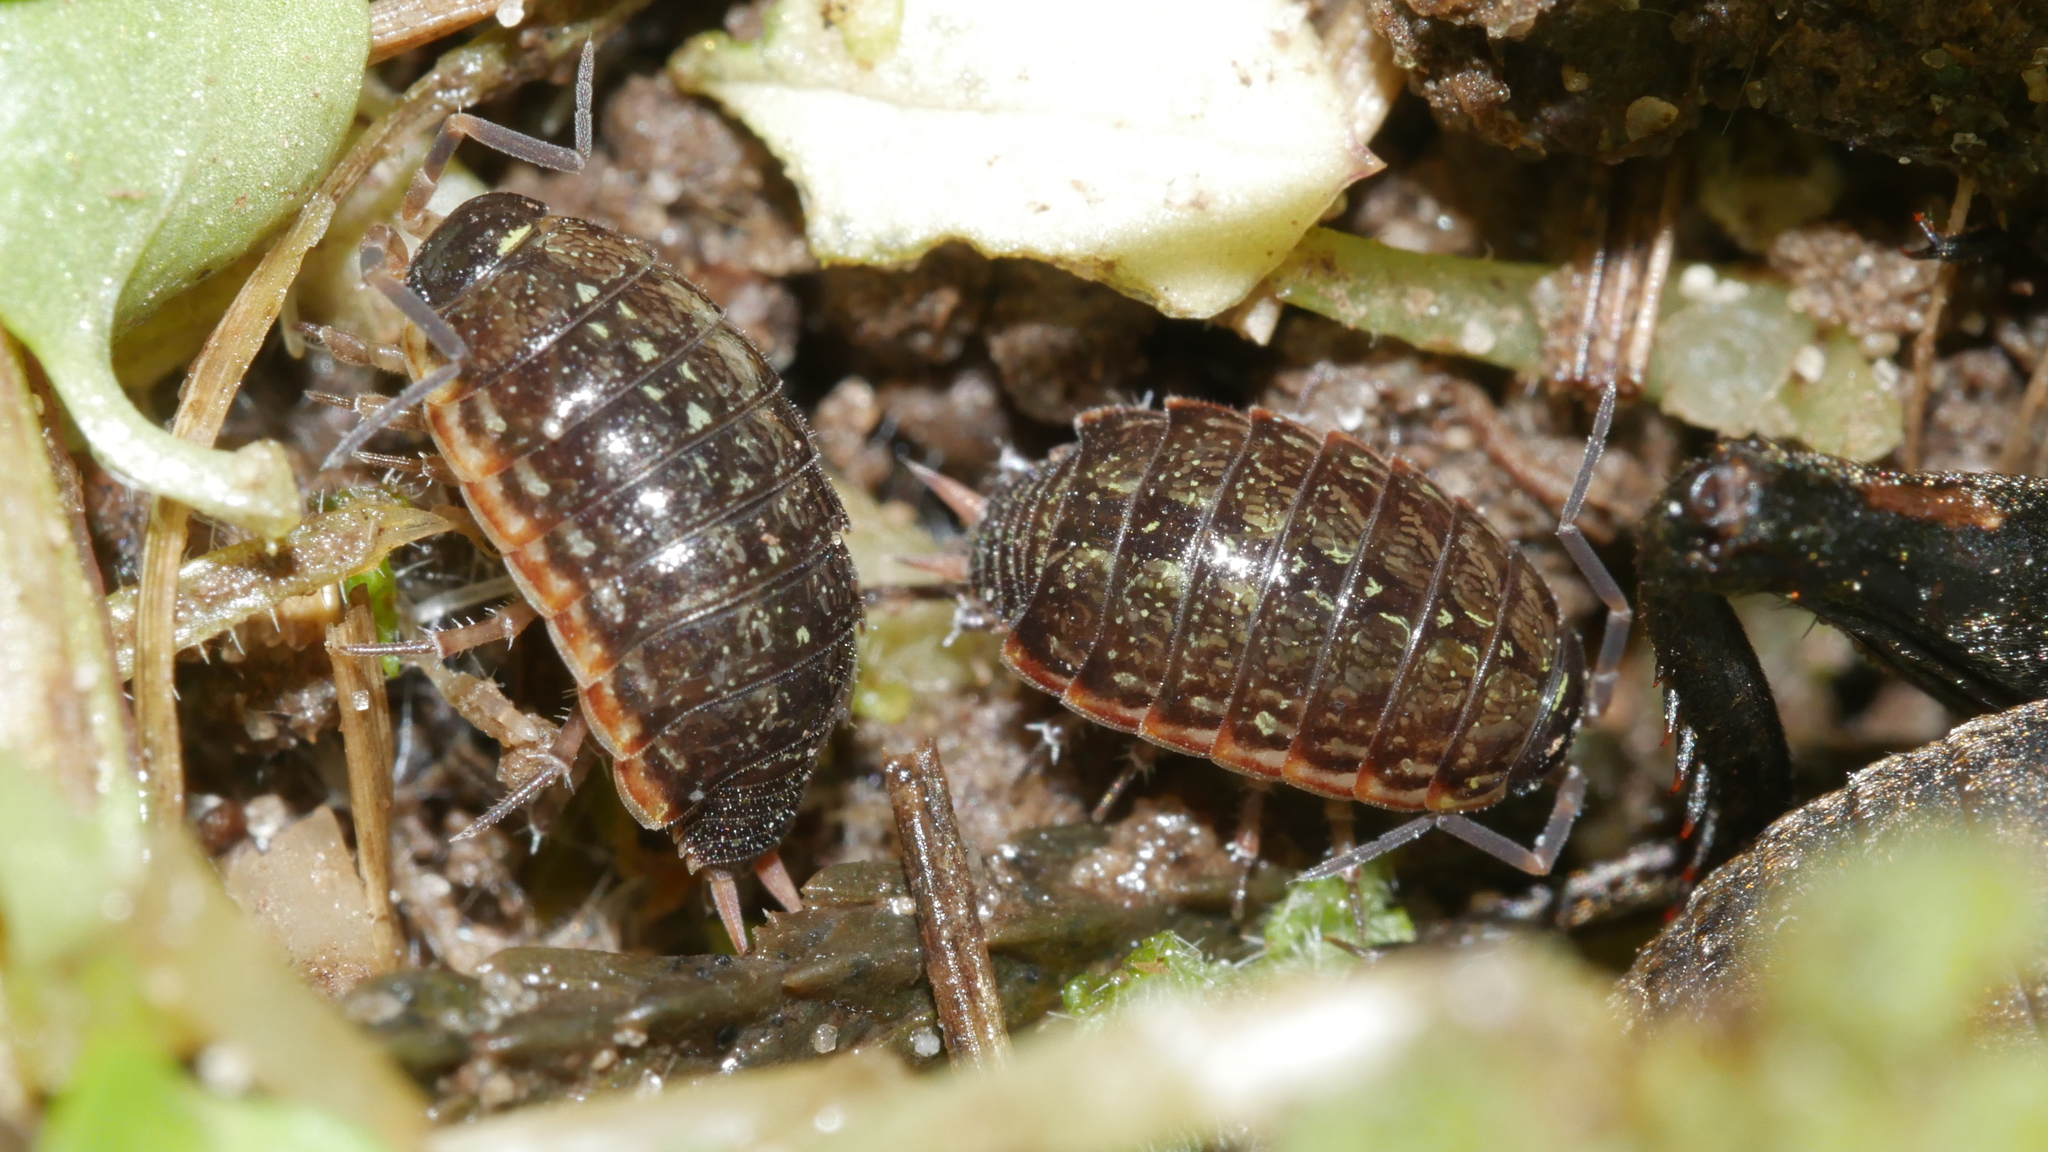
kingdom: Animalia
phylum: Arthropoda
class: Malacostraca
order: Isopoda
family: Philosciidae
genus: Philoscia
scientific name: Philoscia muscorum
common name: Common striped woodlouse
